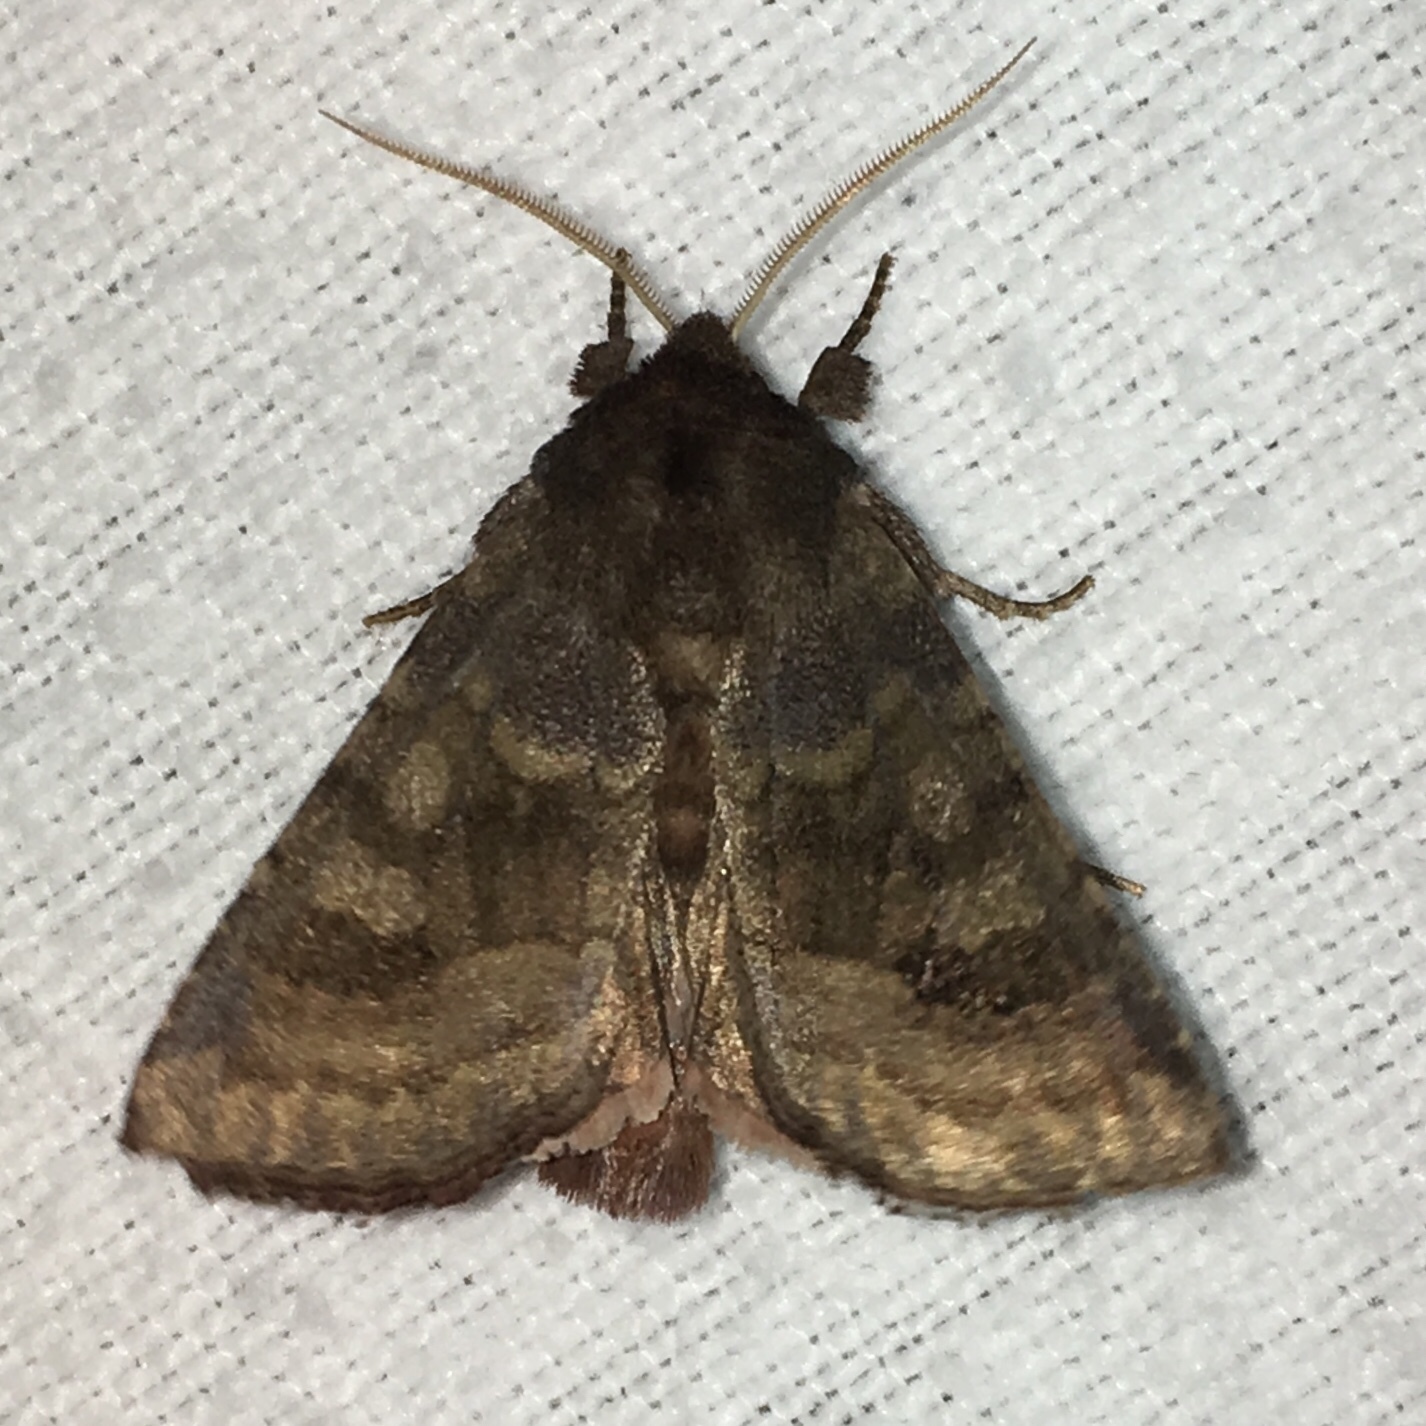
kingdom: Animalia
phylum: Arthropoda
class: Insecta
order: Lepidoptera
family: Noctuidae
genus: Nephelodes
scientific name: Nephelodes minians
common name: Bronzed cutworm
